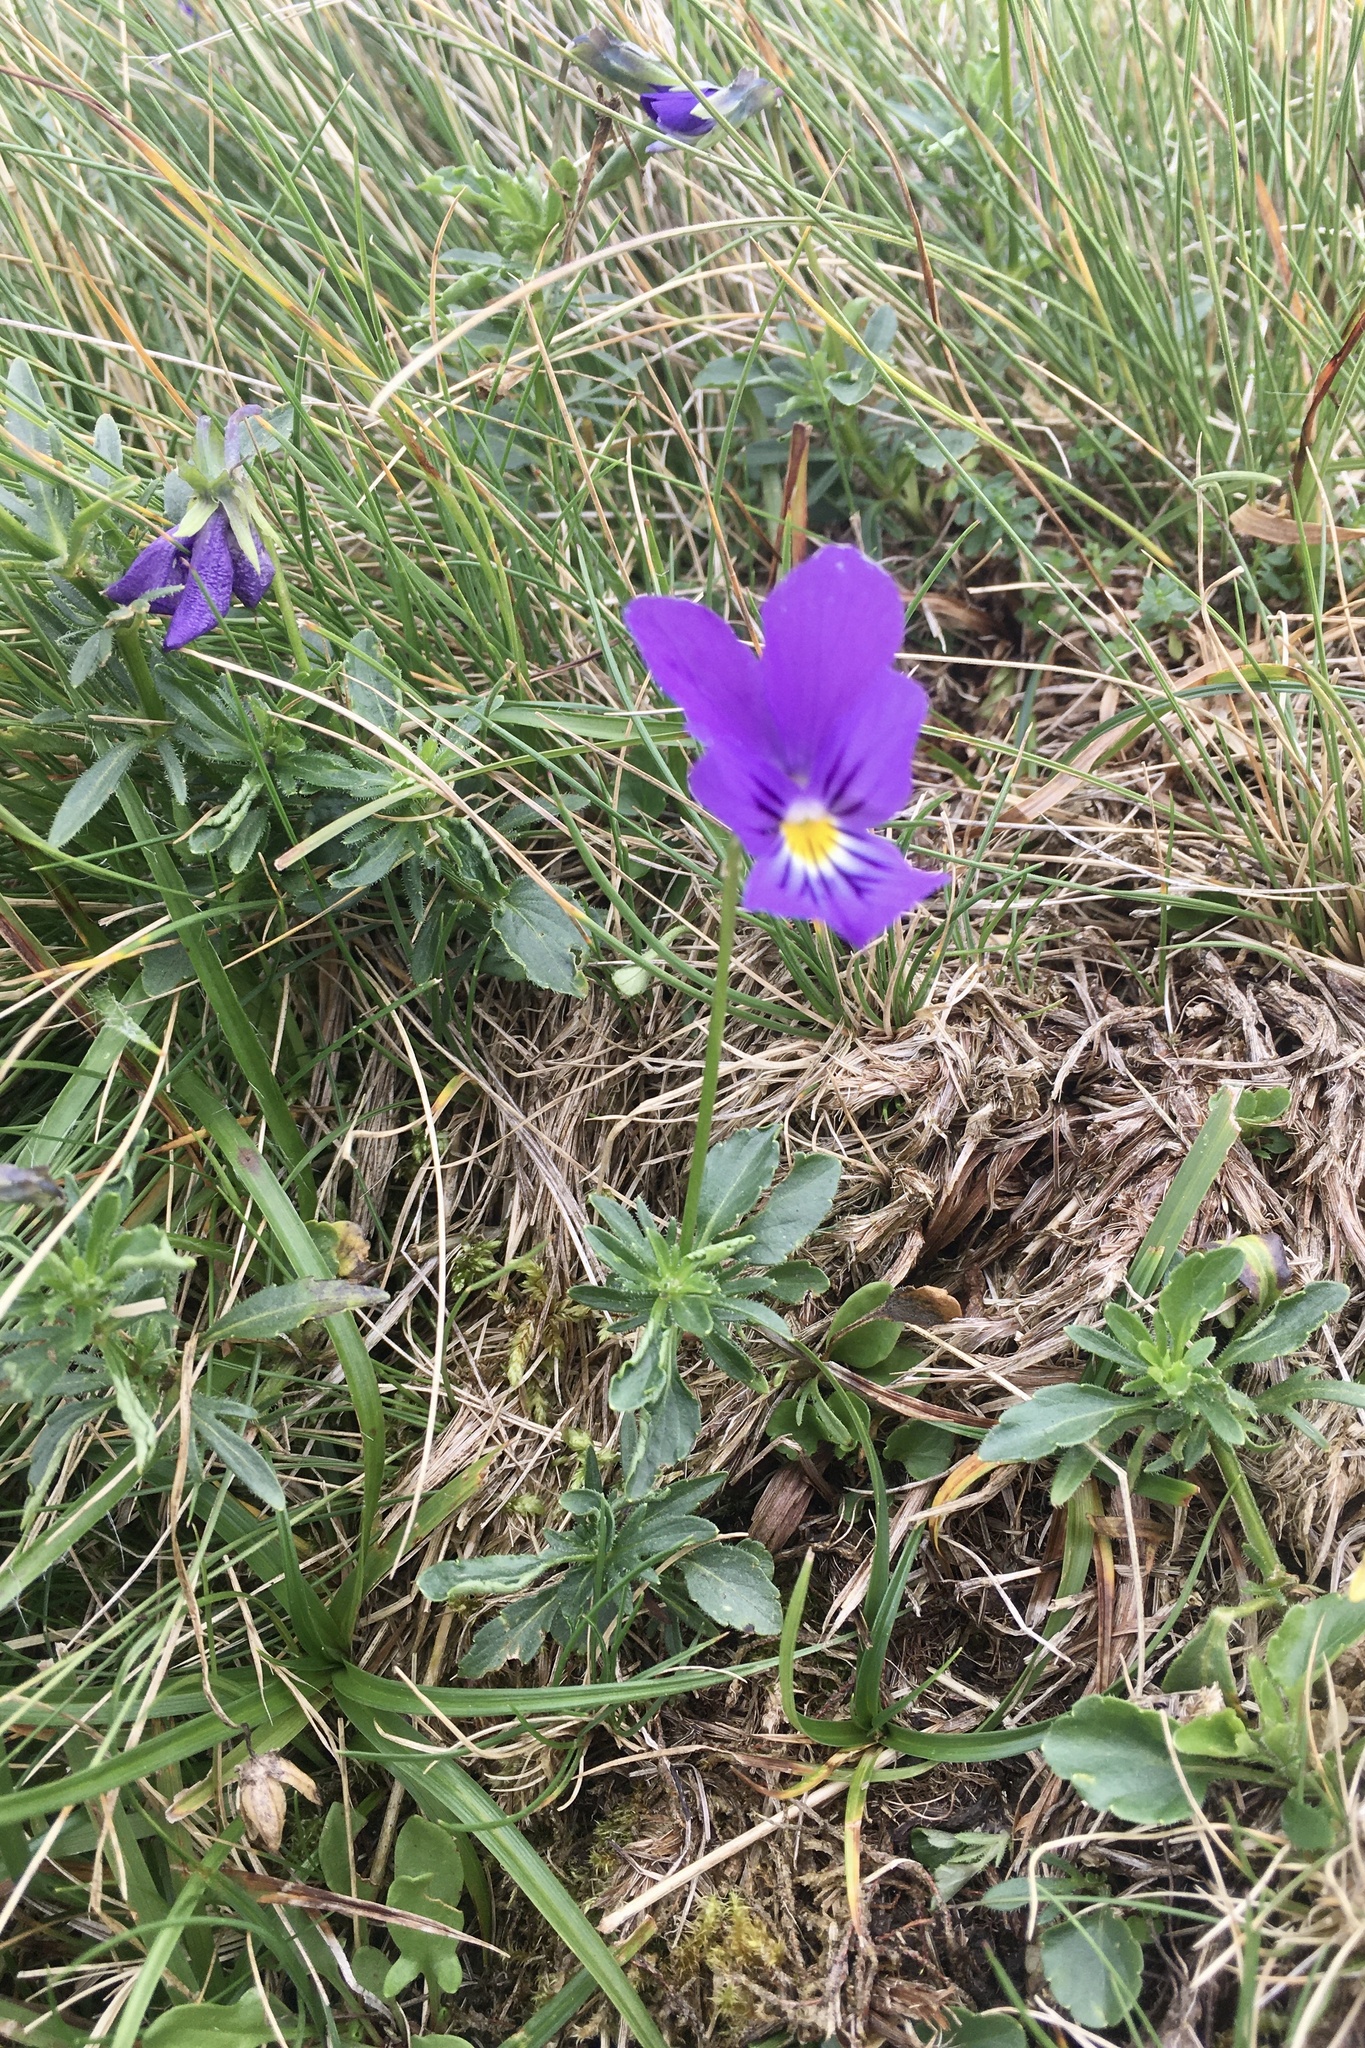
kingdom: Plantae
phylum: Tracheophyta
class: Magnoliopsida
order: Malpighiales
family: Violaceae
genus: Viola
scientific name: Viola lutea
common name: Mountain pansy
